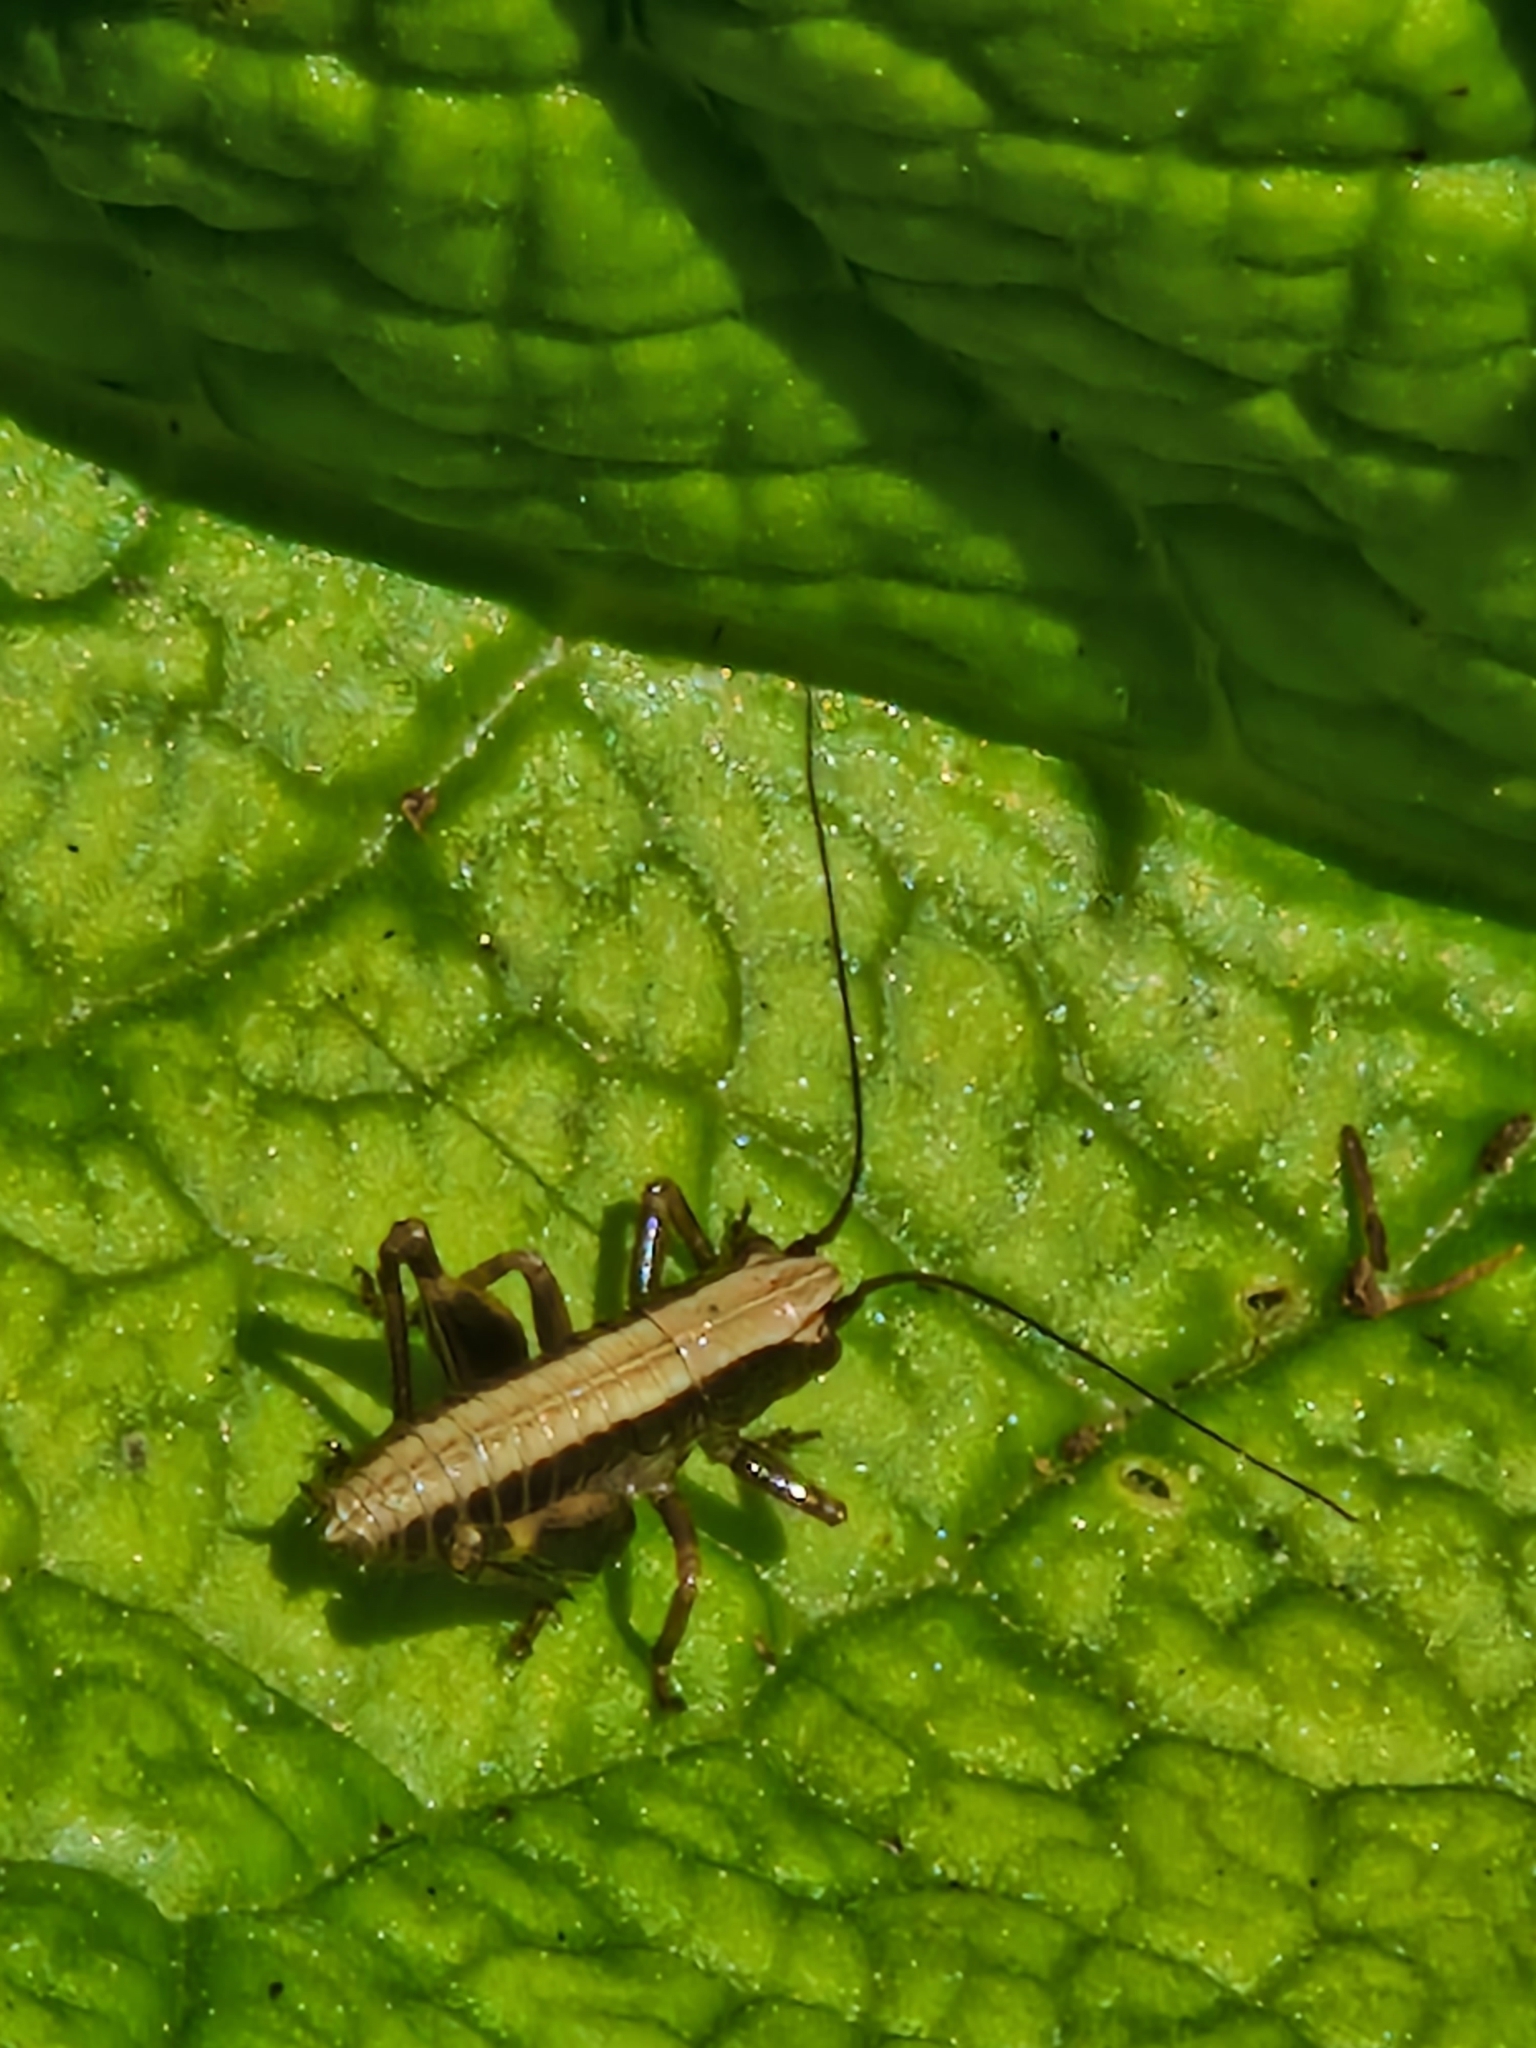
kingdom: Animalia
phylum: Arthropoda
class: Insecta
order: Orthoptera
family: Tettigoniidae
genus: Pholidoptera
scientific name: Pholidoptera griseoaptera
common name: Dark bush-cricket
